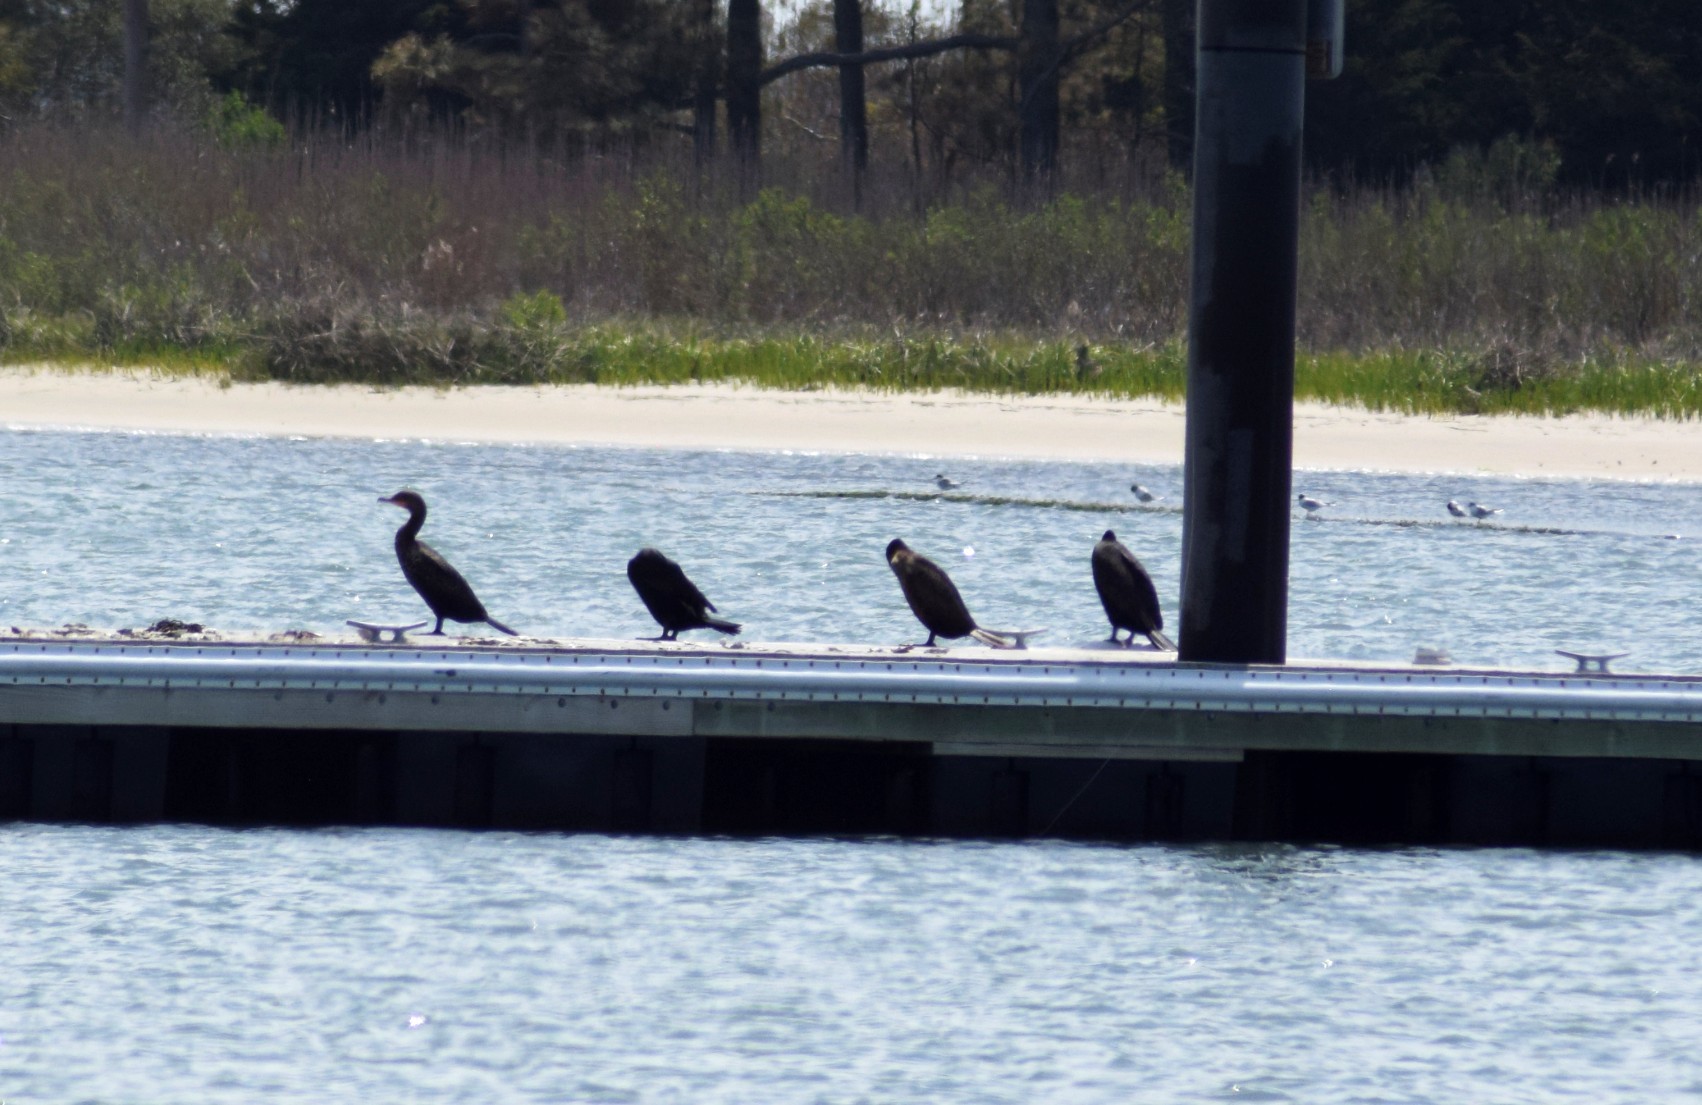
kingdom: Animalia
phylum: Chordata
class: Aves
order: Suliformes
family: Phalacrocoracidae
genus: Phalacrocorax
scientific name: Phalacrocorax auritus
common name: Double-crested cormorant
